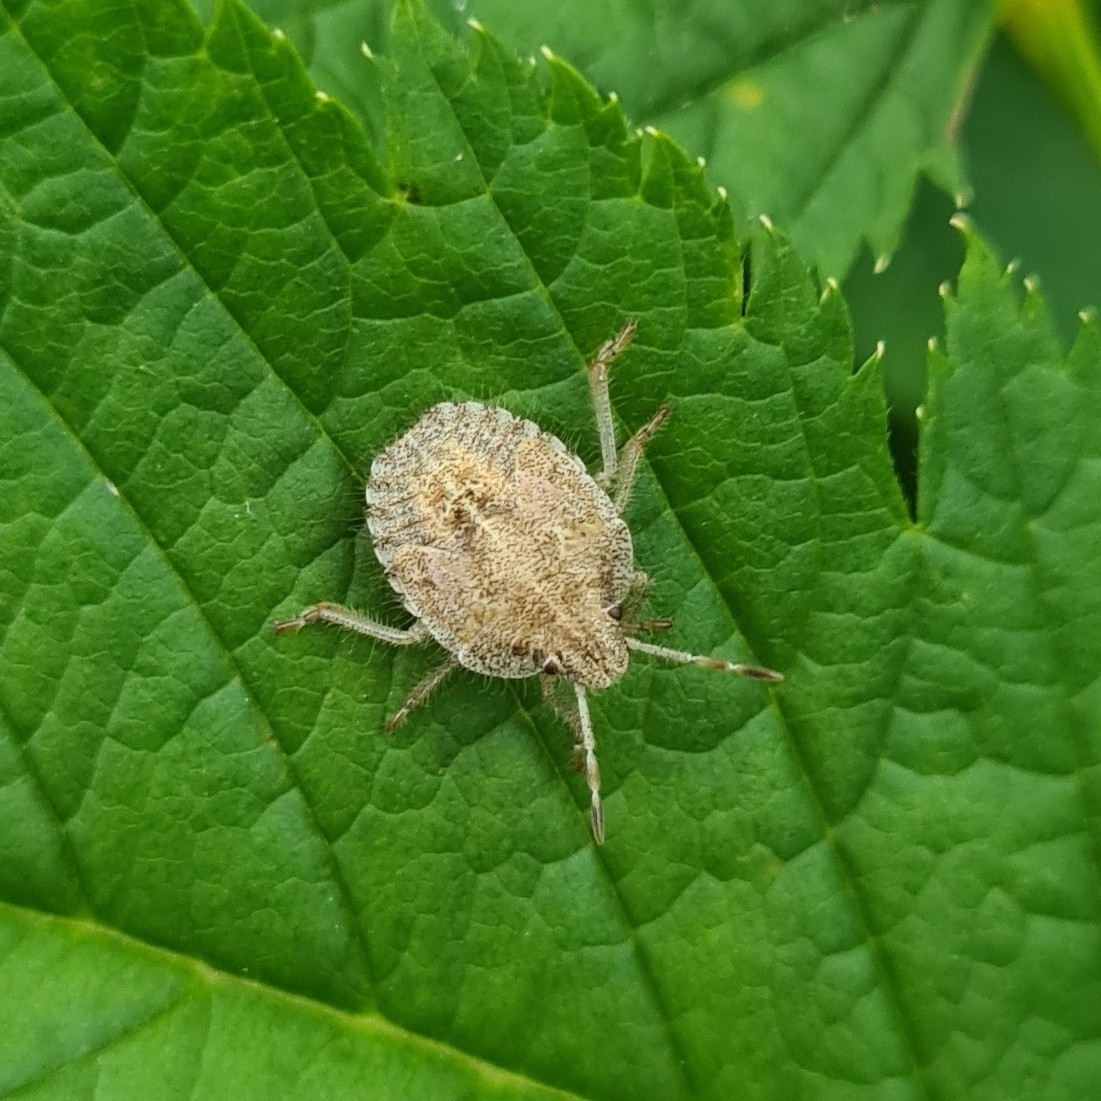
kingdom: Animalia
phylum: Arthropoda
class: Insecta
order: Hemiptera
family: Pentatomidae
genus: Dolycoris
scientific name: Dolycoris baccarum
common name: Sloe bug
